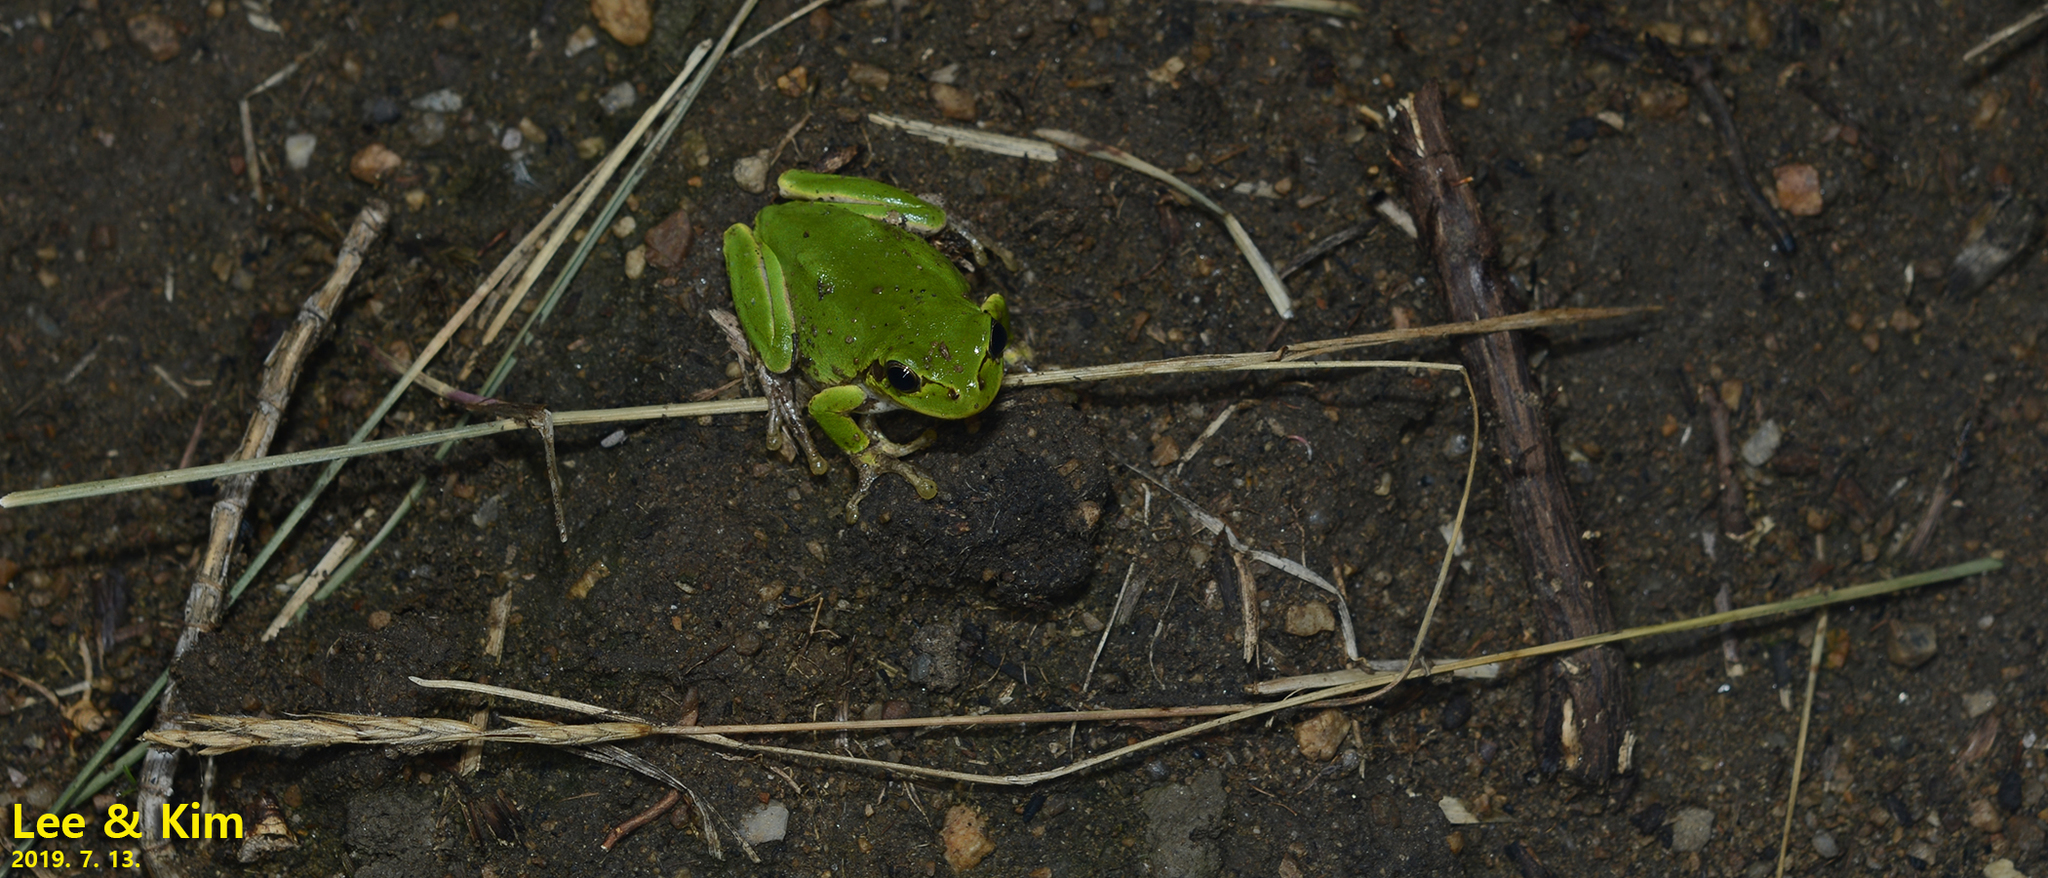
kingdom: Animalia
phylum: Chordata
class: Amphibia
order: Anura
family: Hylidae
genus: Dryophytes
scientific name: Dryophytes japonicus
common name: Japanese treefrog
